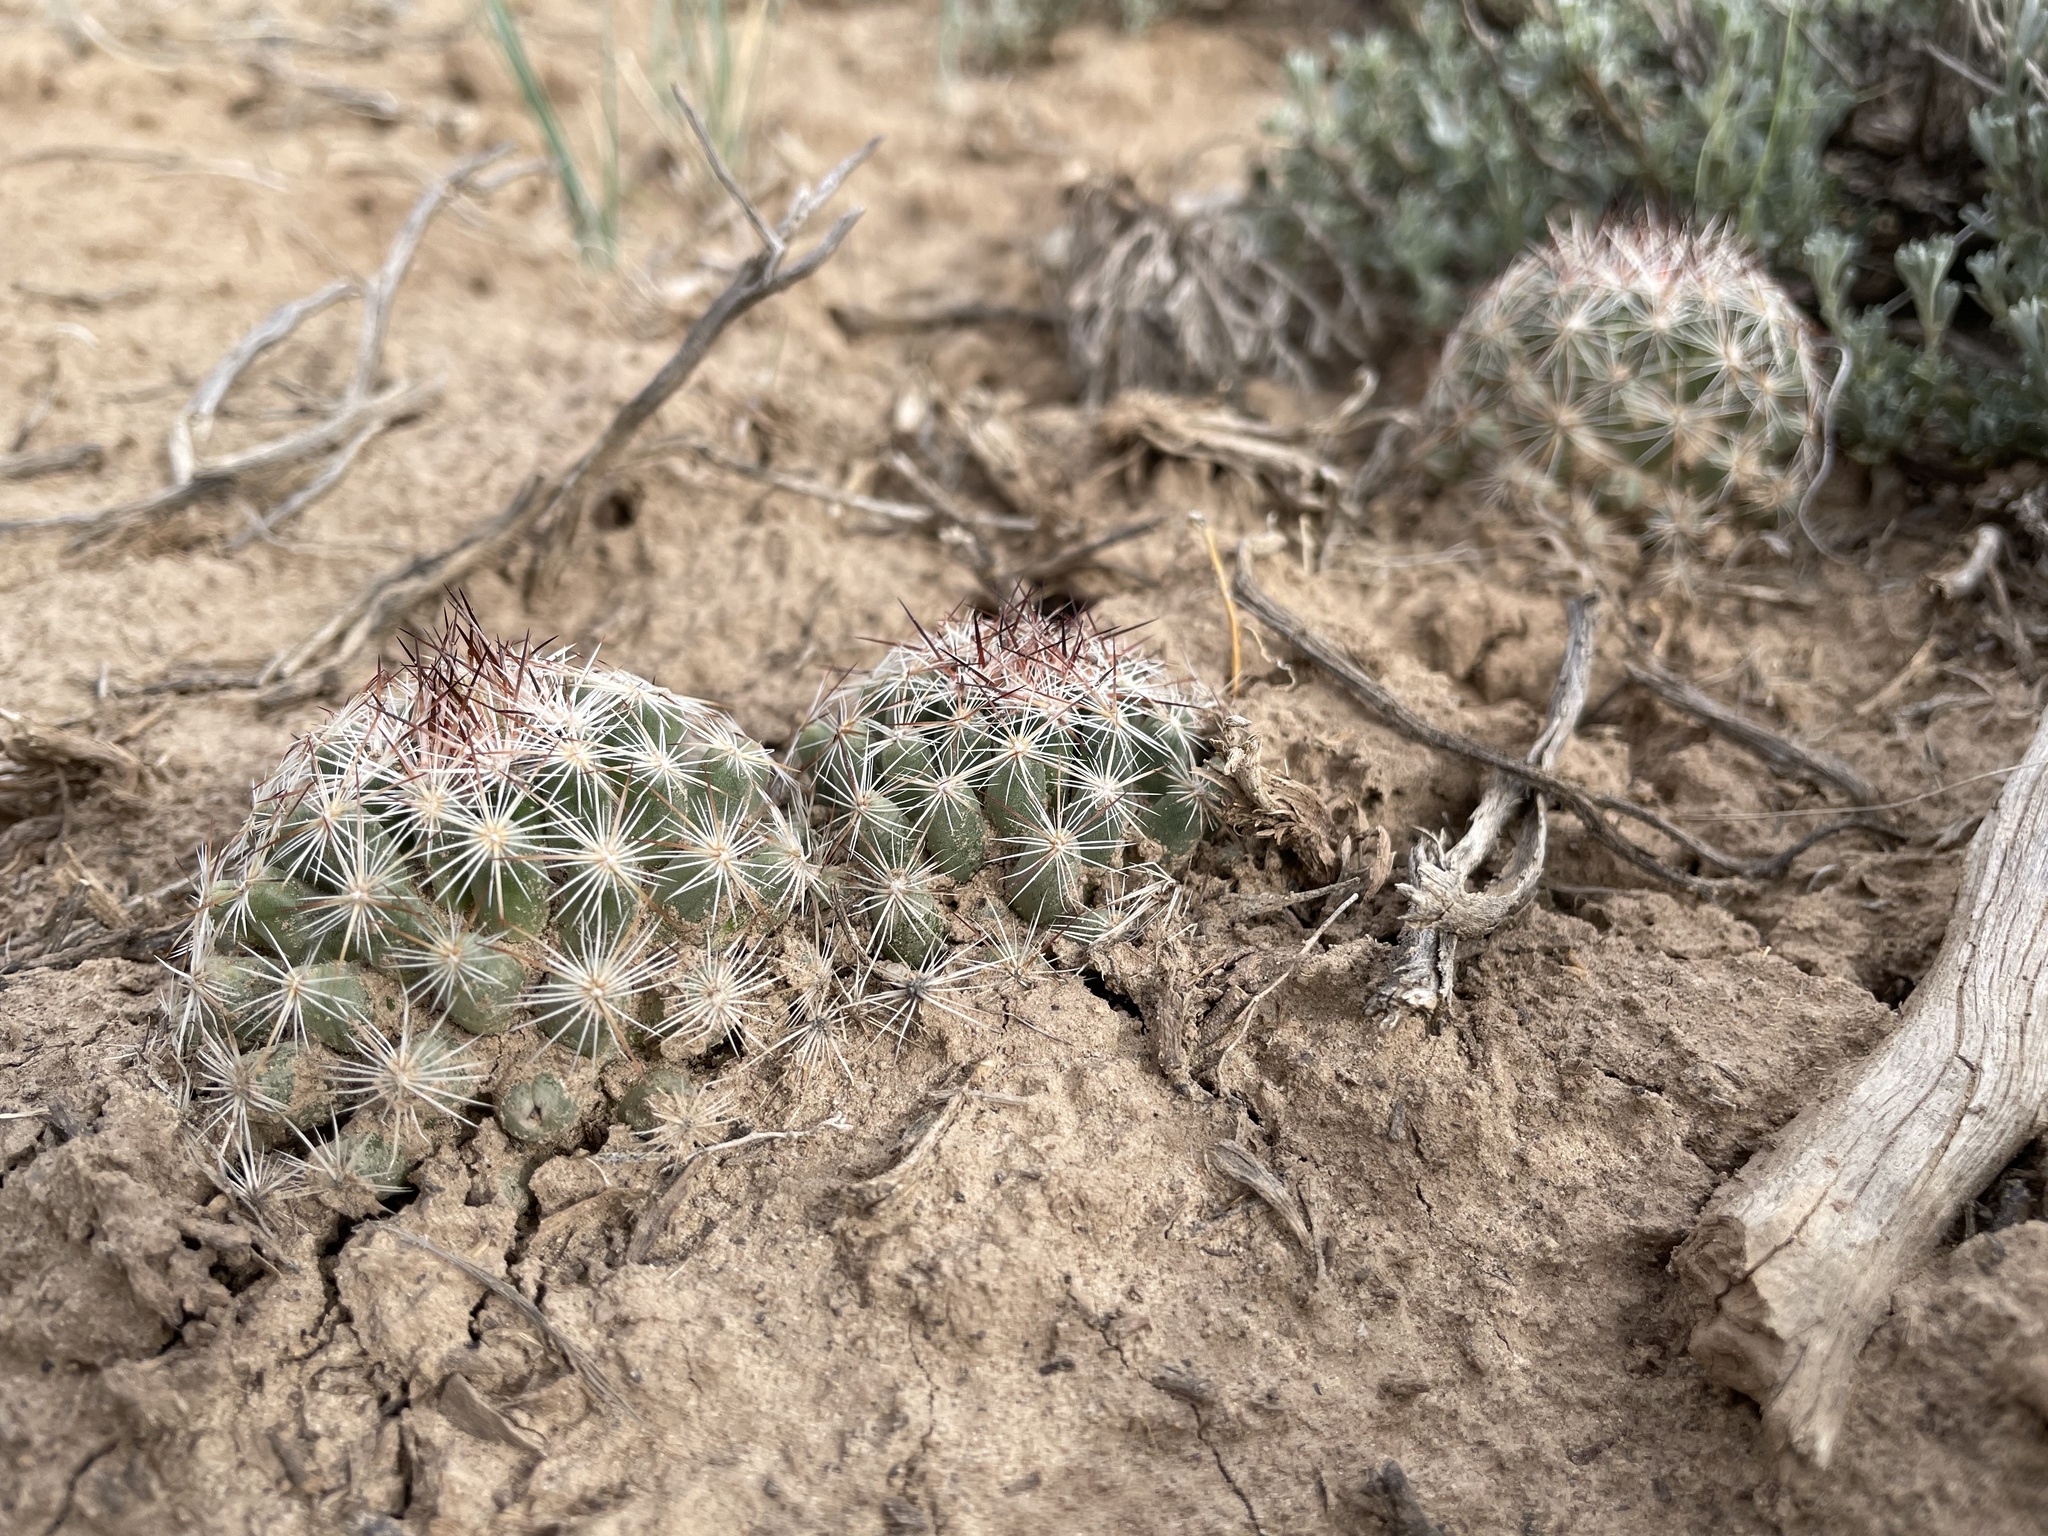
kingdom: Plantae
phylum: Tracheophyta
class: Magnoliopsida
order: Caryophyllales
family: Cactaceae
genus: Pelecyphora
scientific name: Pelecyphora vivipara
